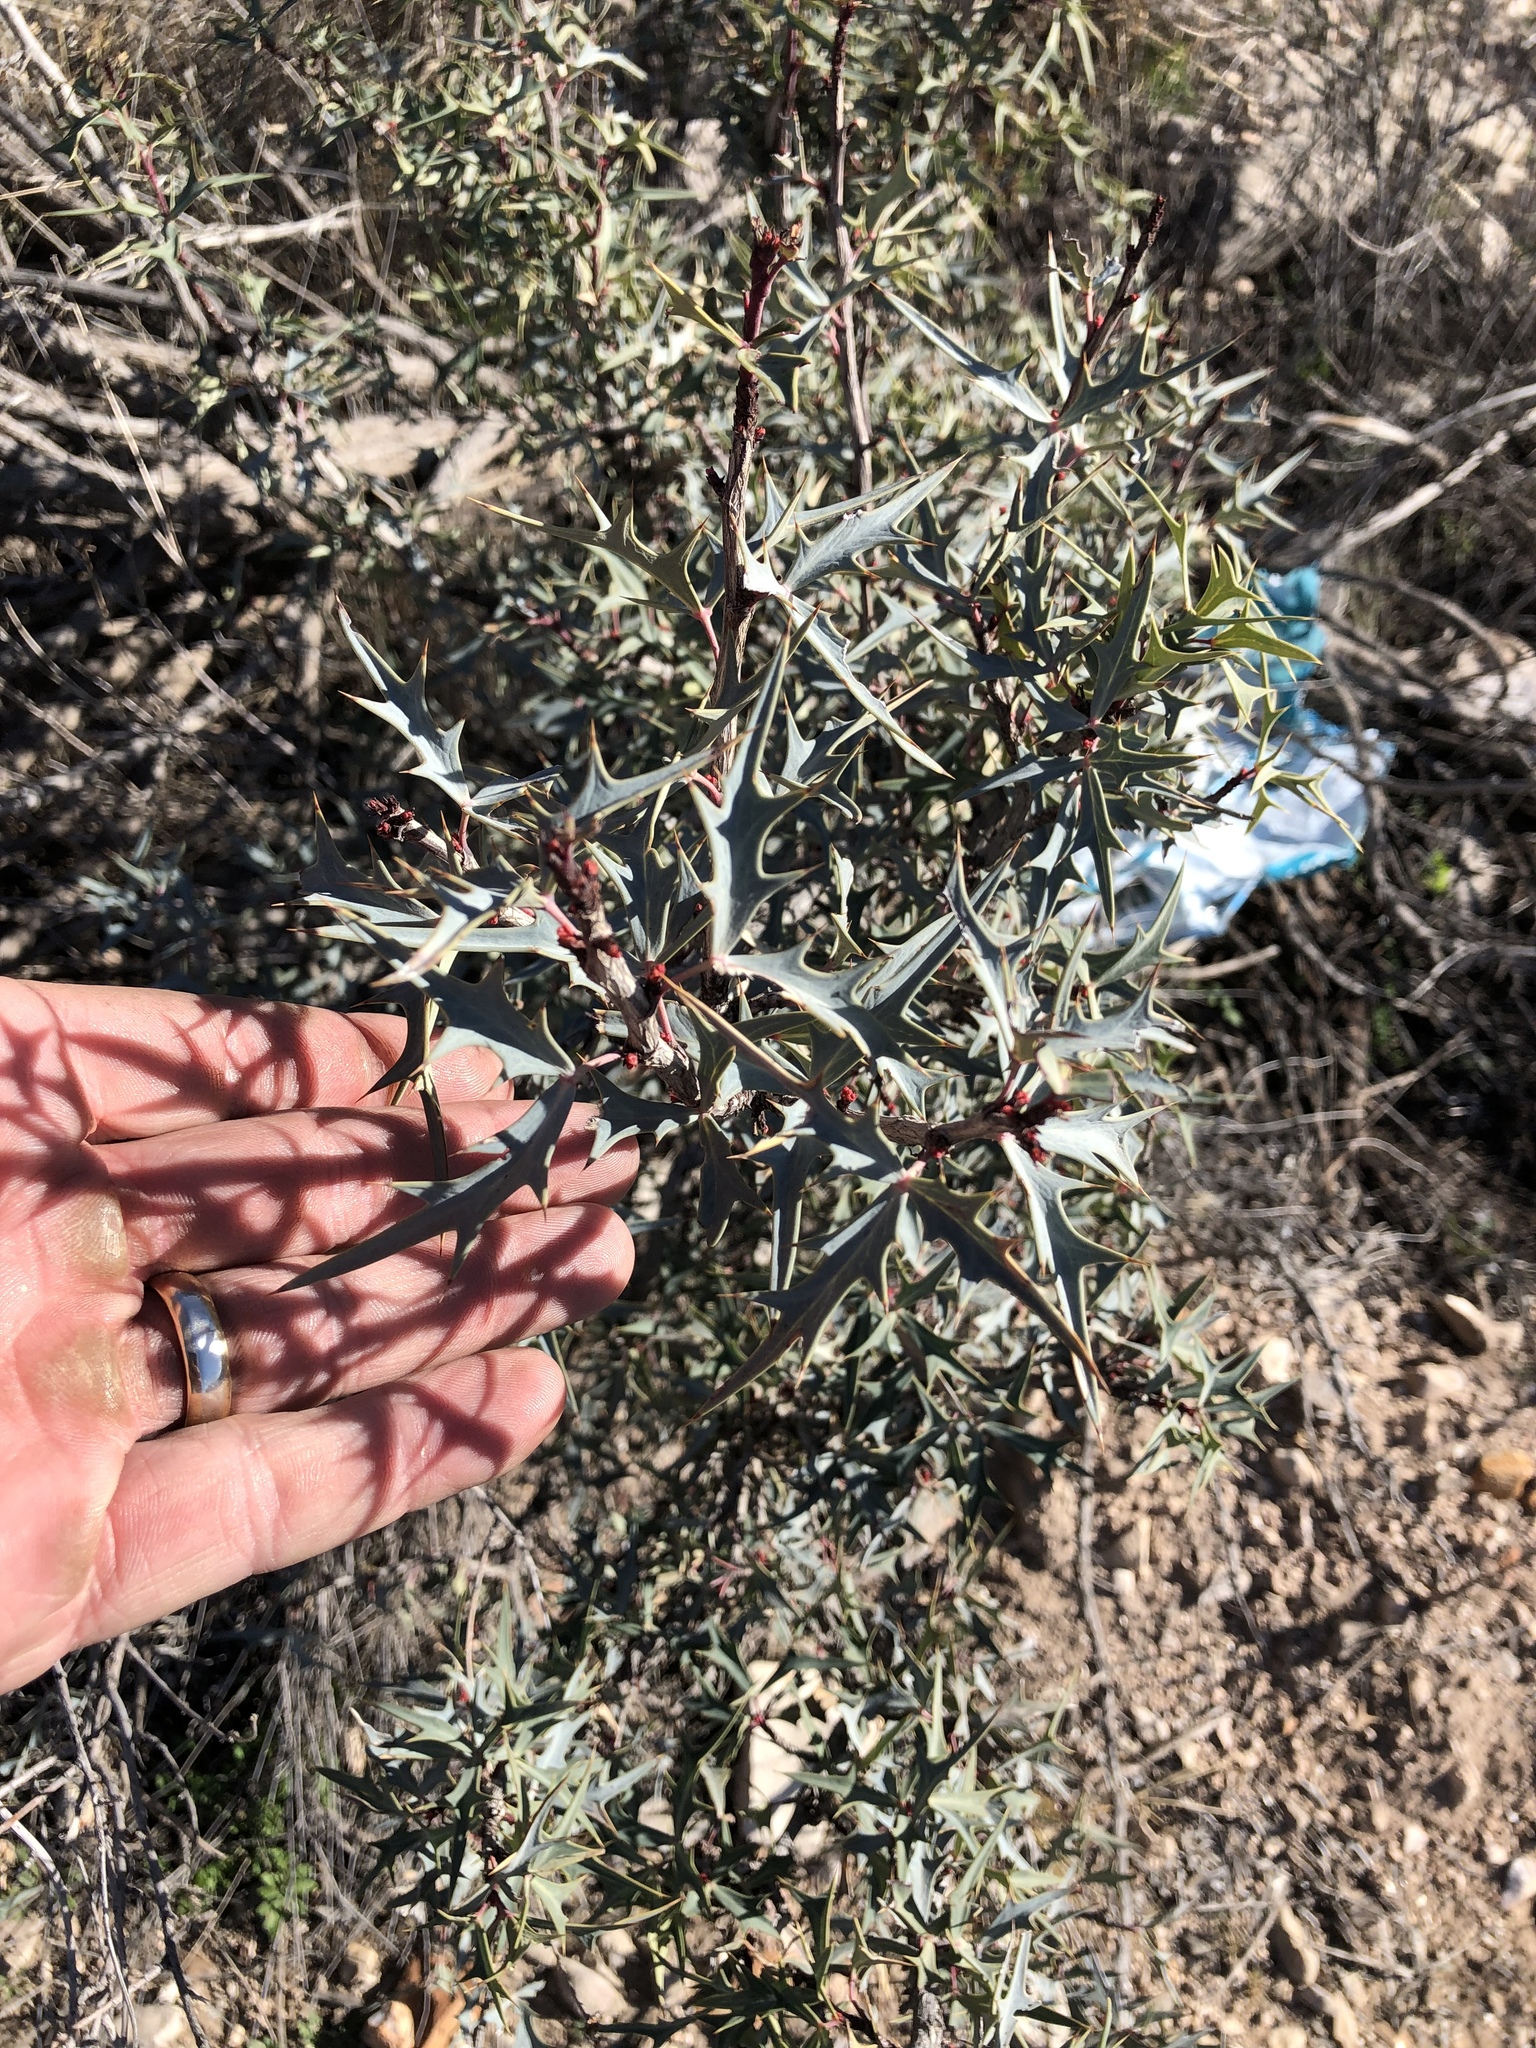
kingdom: Plantae
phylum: Tracheophyta
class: Magnoliopsida
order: Ranunculales
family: Berberidaceae
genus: Alloberberis
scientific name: Alloberberis trifoliolata
